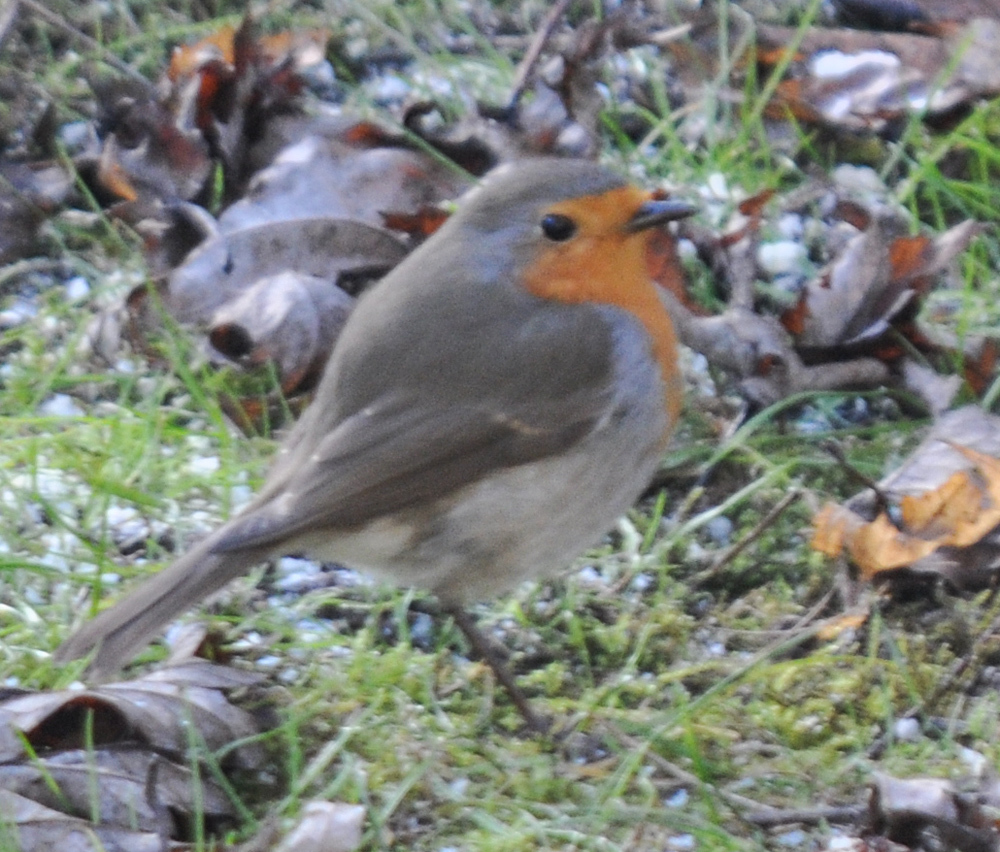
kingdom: Animalia
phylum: Chordata
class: Aves
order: Passeriformes
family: Muscicapidae
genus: Erithacus
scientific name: Erithacus rubecula
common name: European robin
